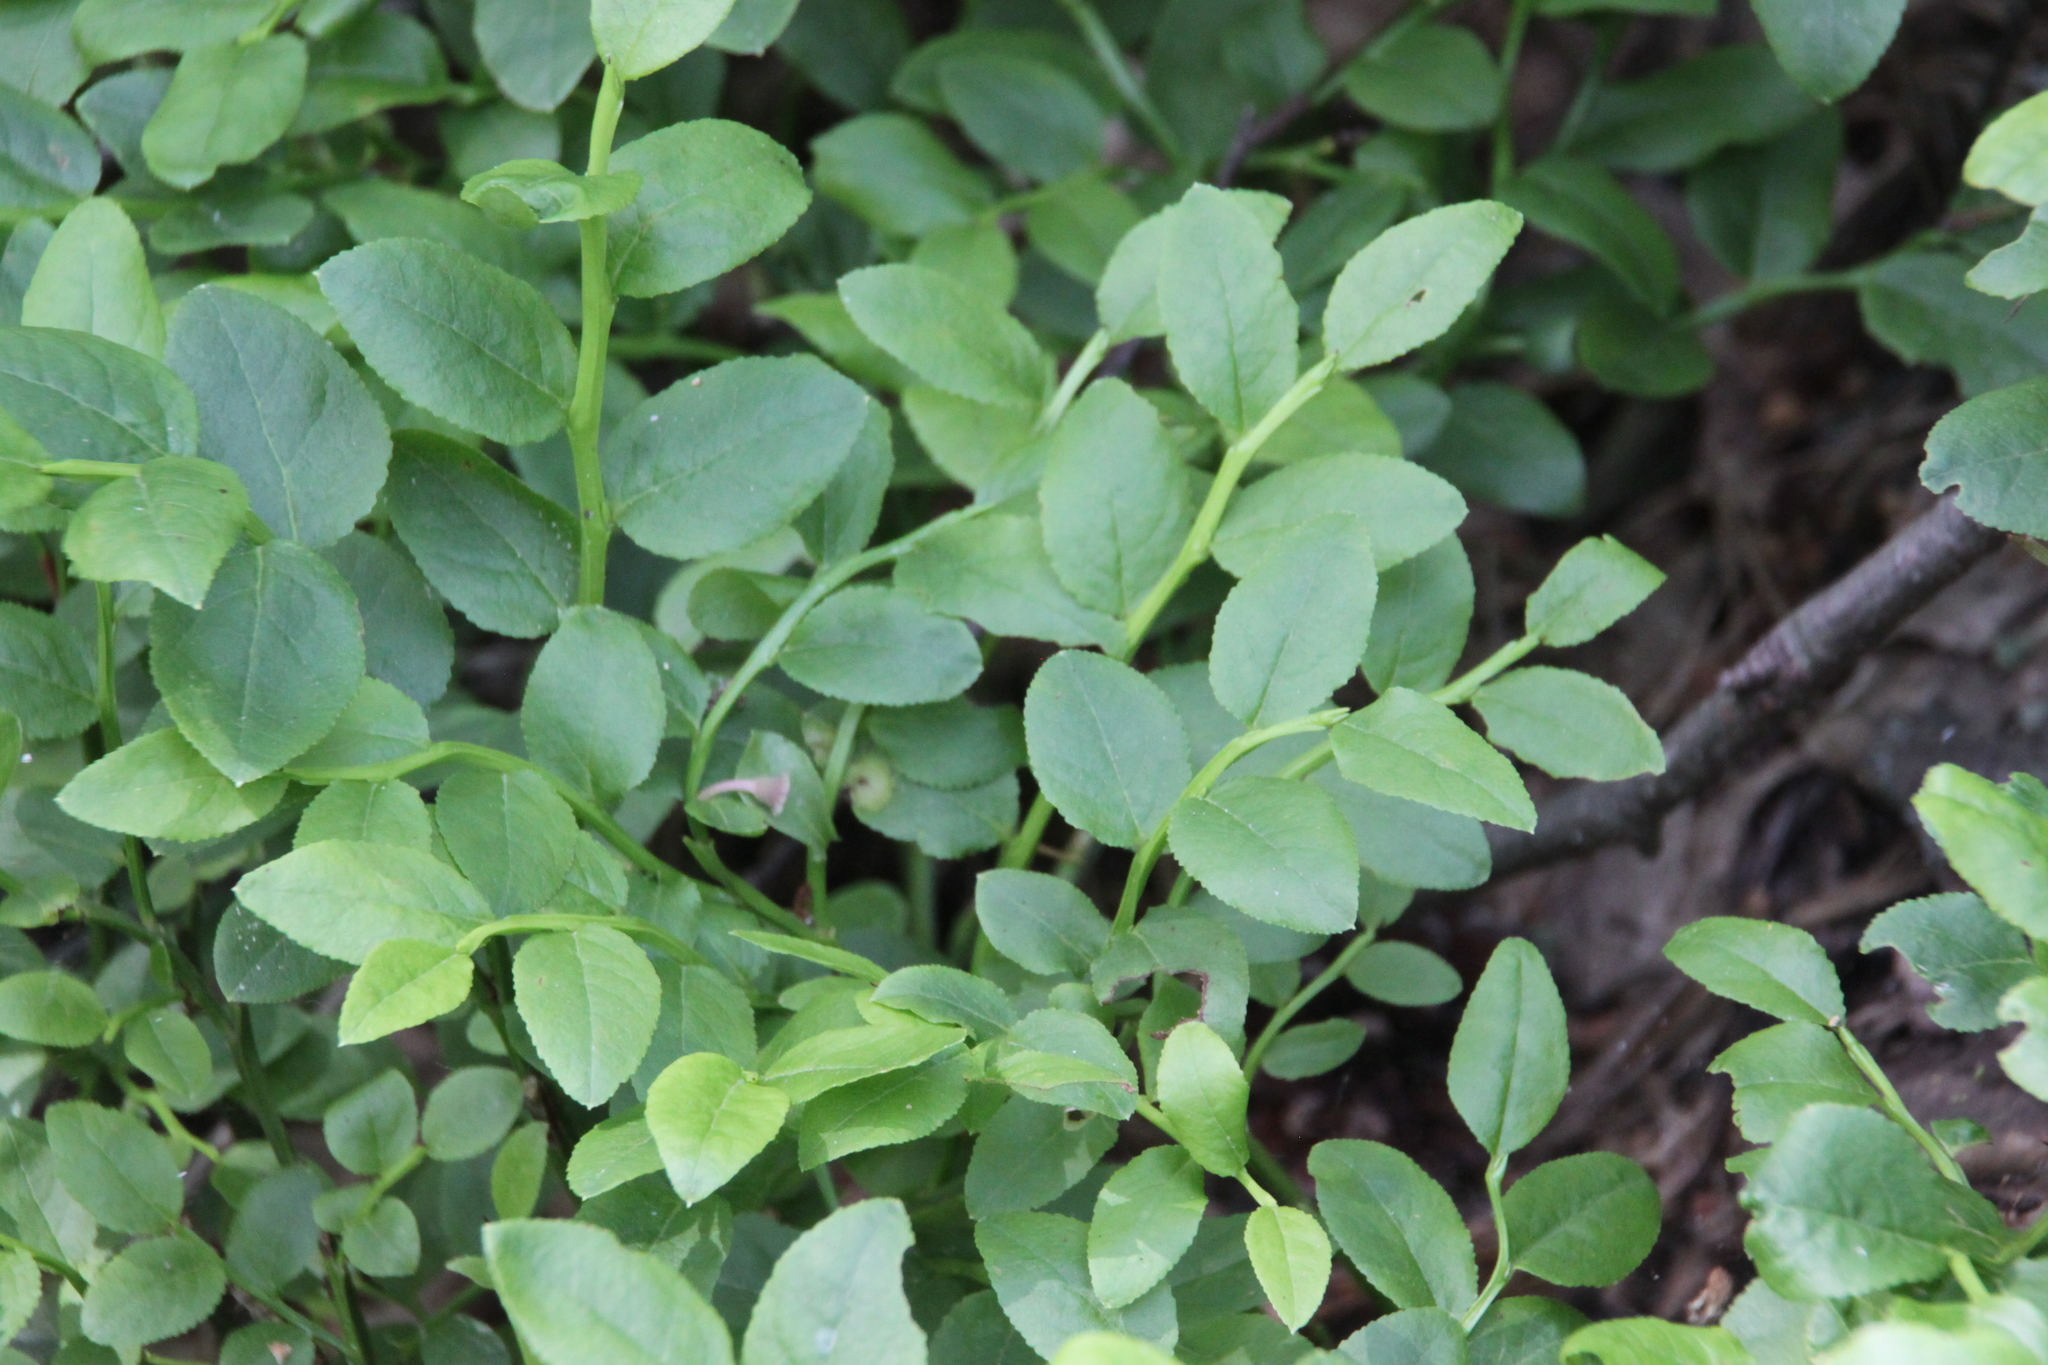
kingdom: Plantae
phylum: Tracheophyta
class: Magnoliopsida
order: Ericales
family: Ericaceae
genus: Vaccinium
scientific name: Vaccinium myrtillus
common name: Bilberry
